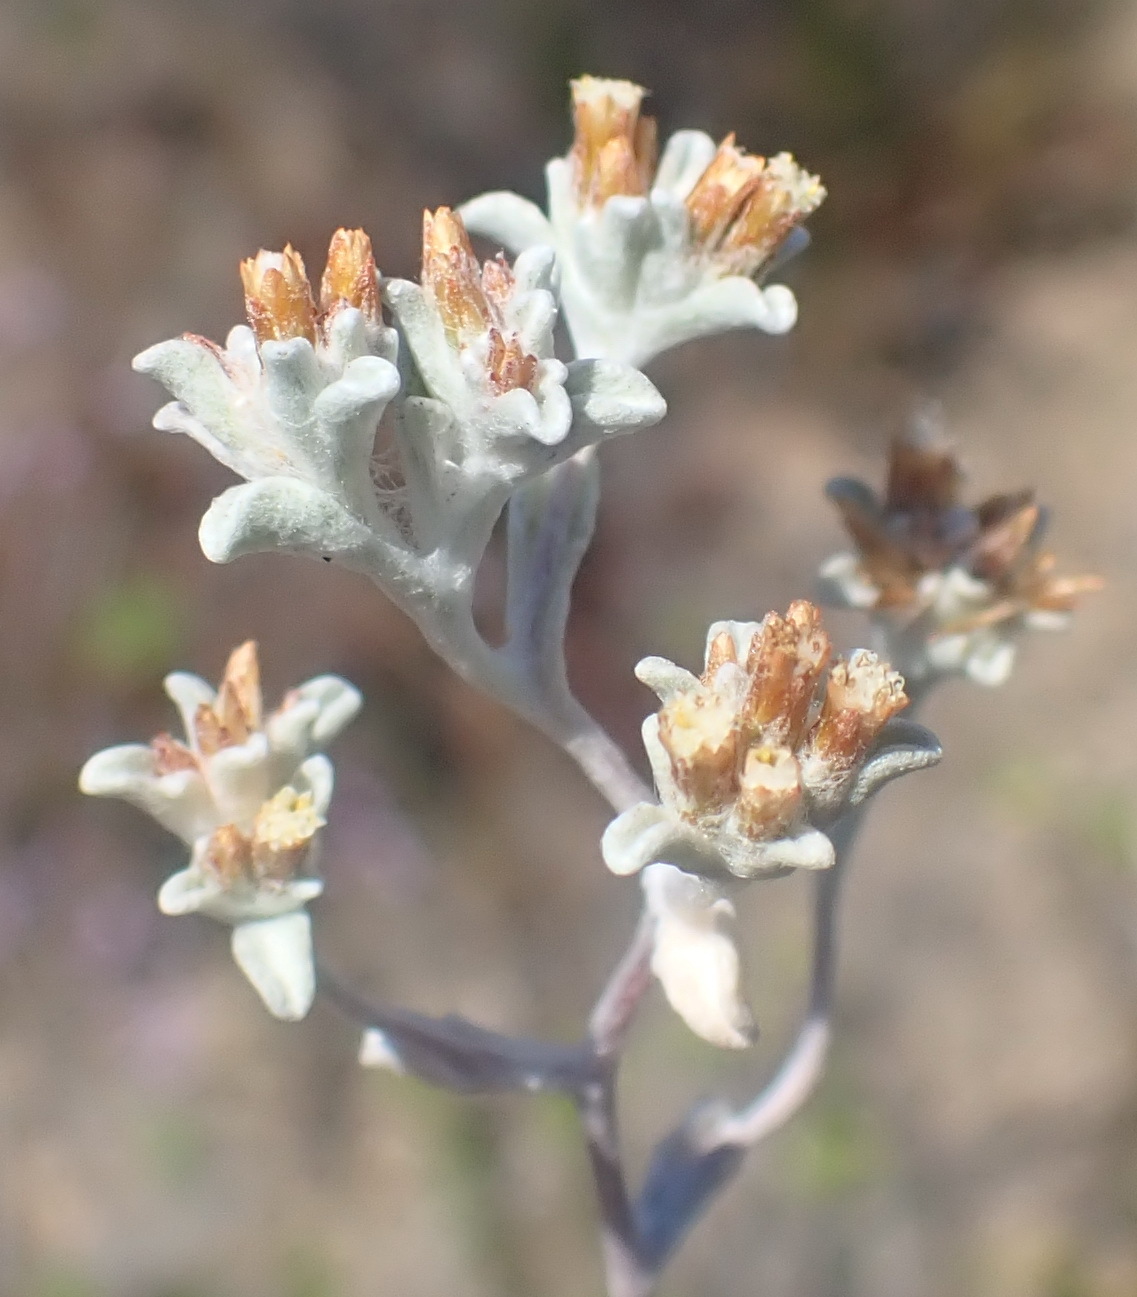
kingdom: Plantae
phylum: Tracheophyta
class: Magnoliopsida
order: Asterales
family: Asteraceae
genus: Helichrysum
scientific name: Helichrysum litorale
